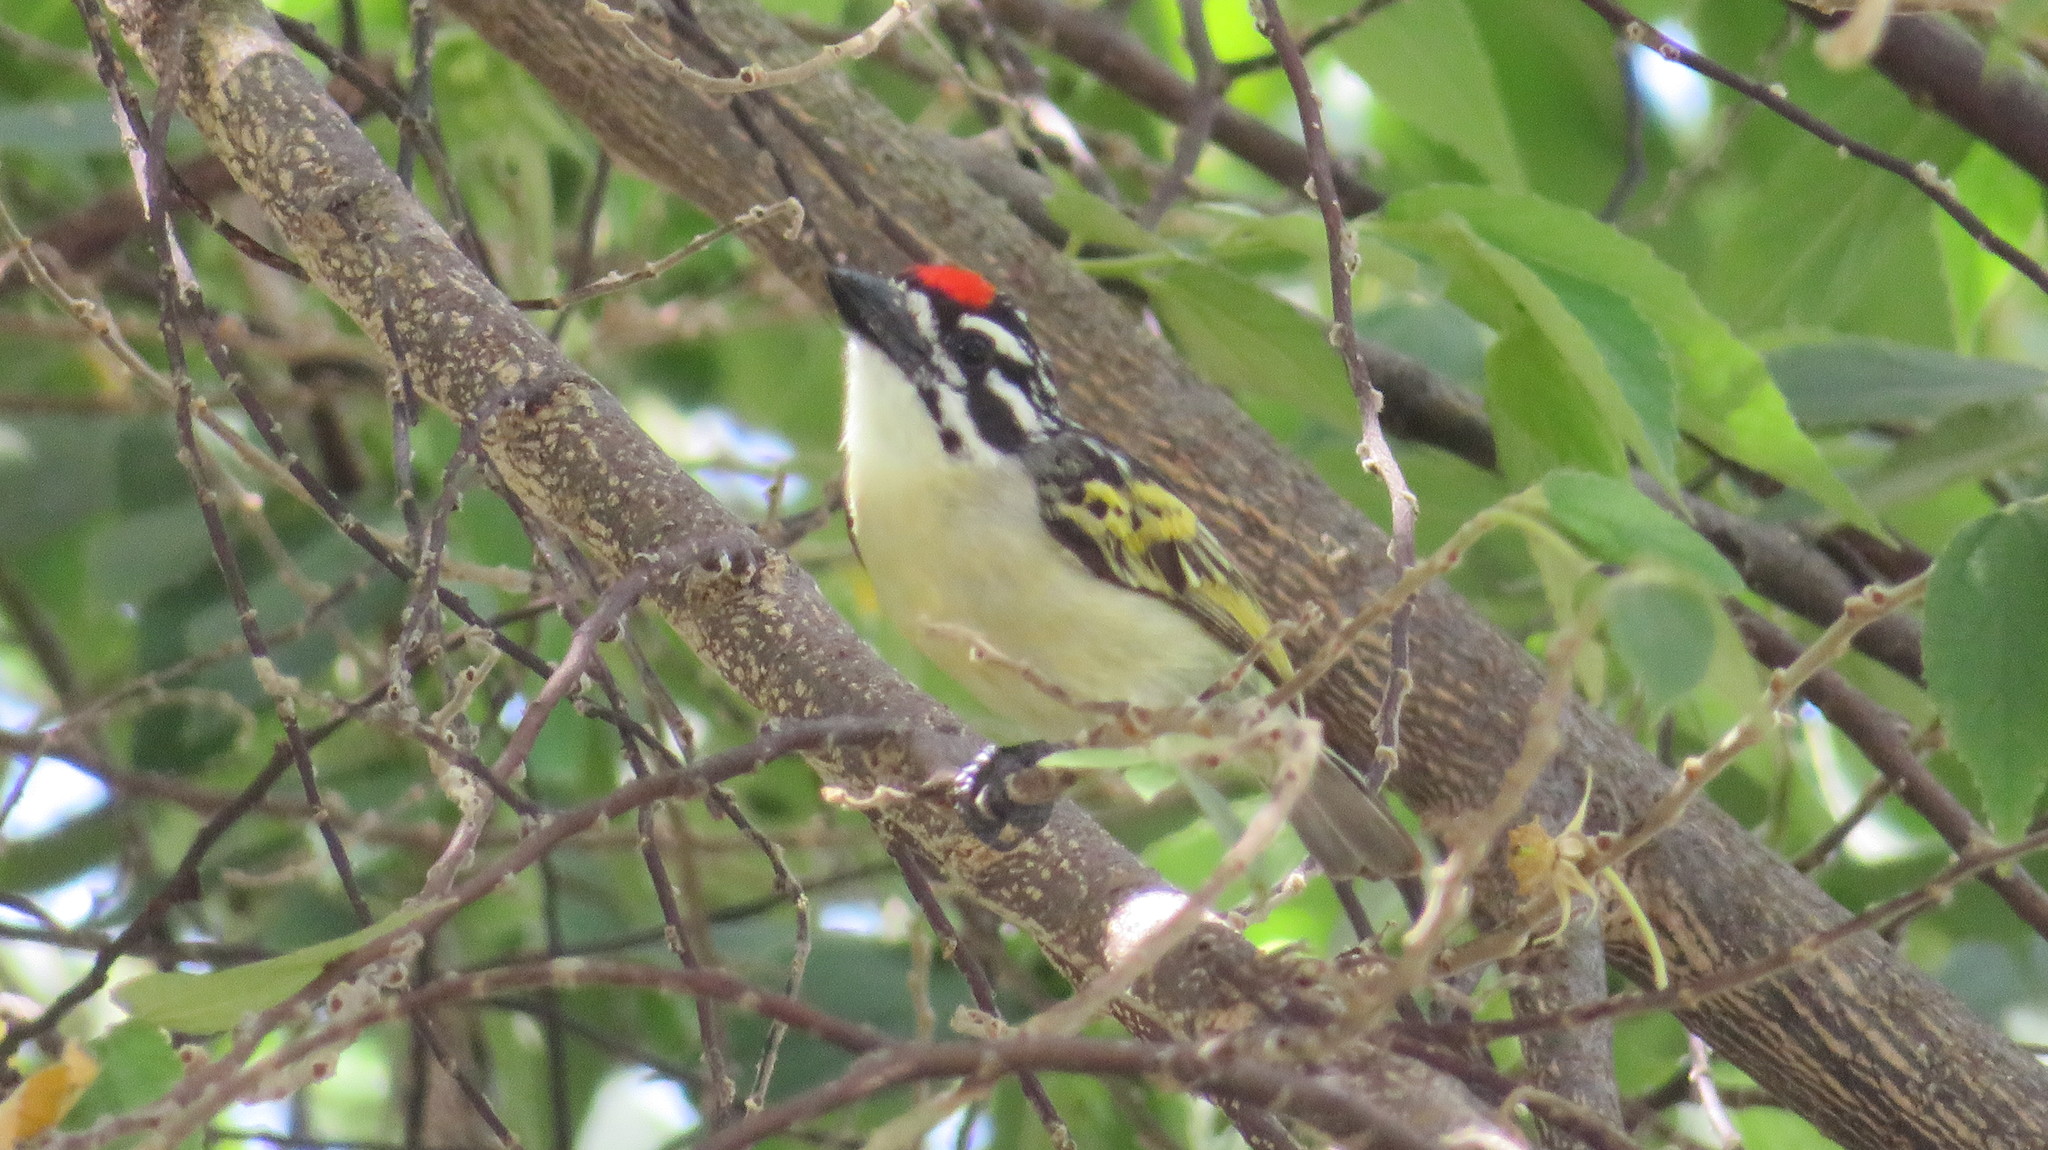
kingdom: Animalia
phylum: Chordata
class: Aves
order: Piciformes
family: Lybiidae
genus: Pogoniulus
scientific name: Pogoniulus pusillus
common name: Red-fronted tinkerbird
